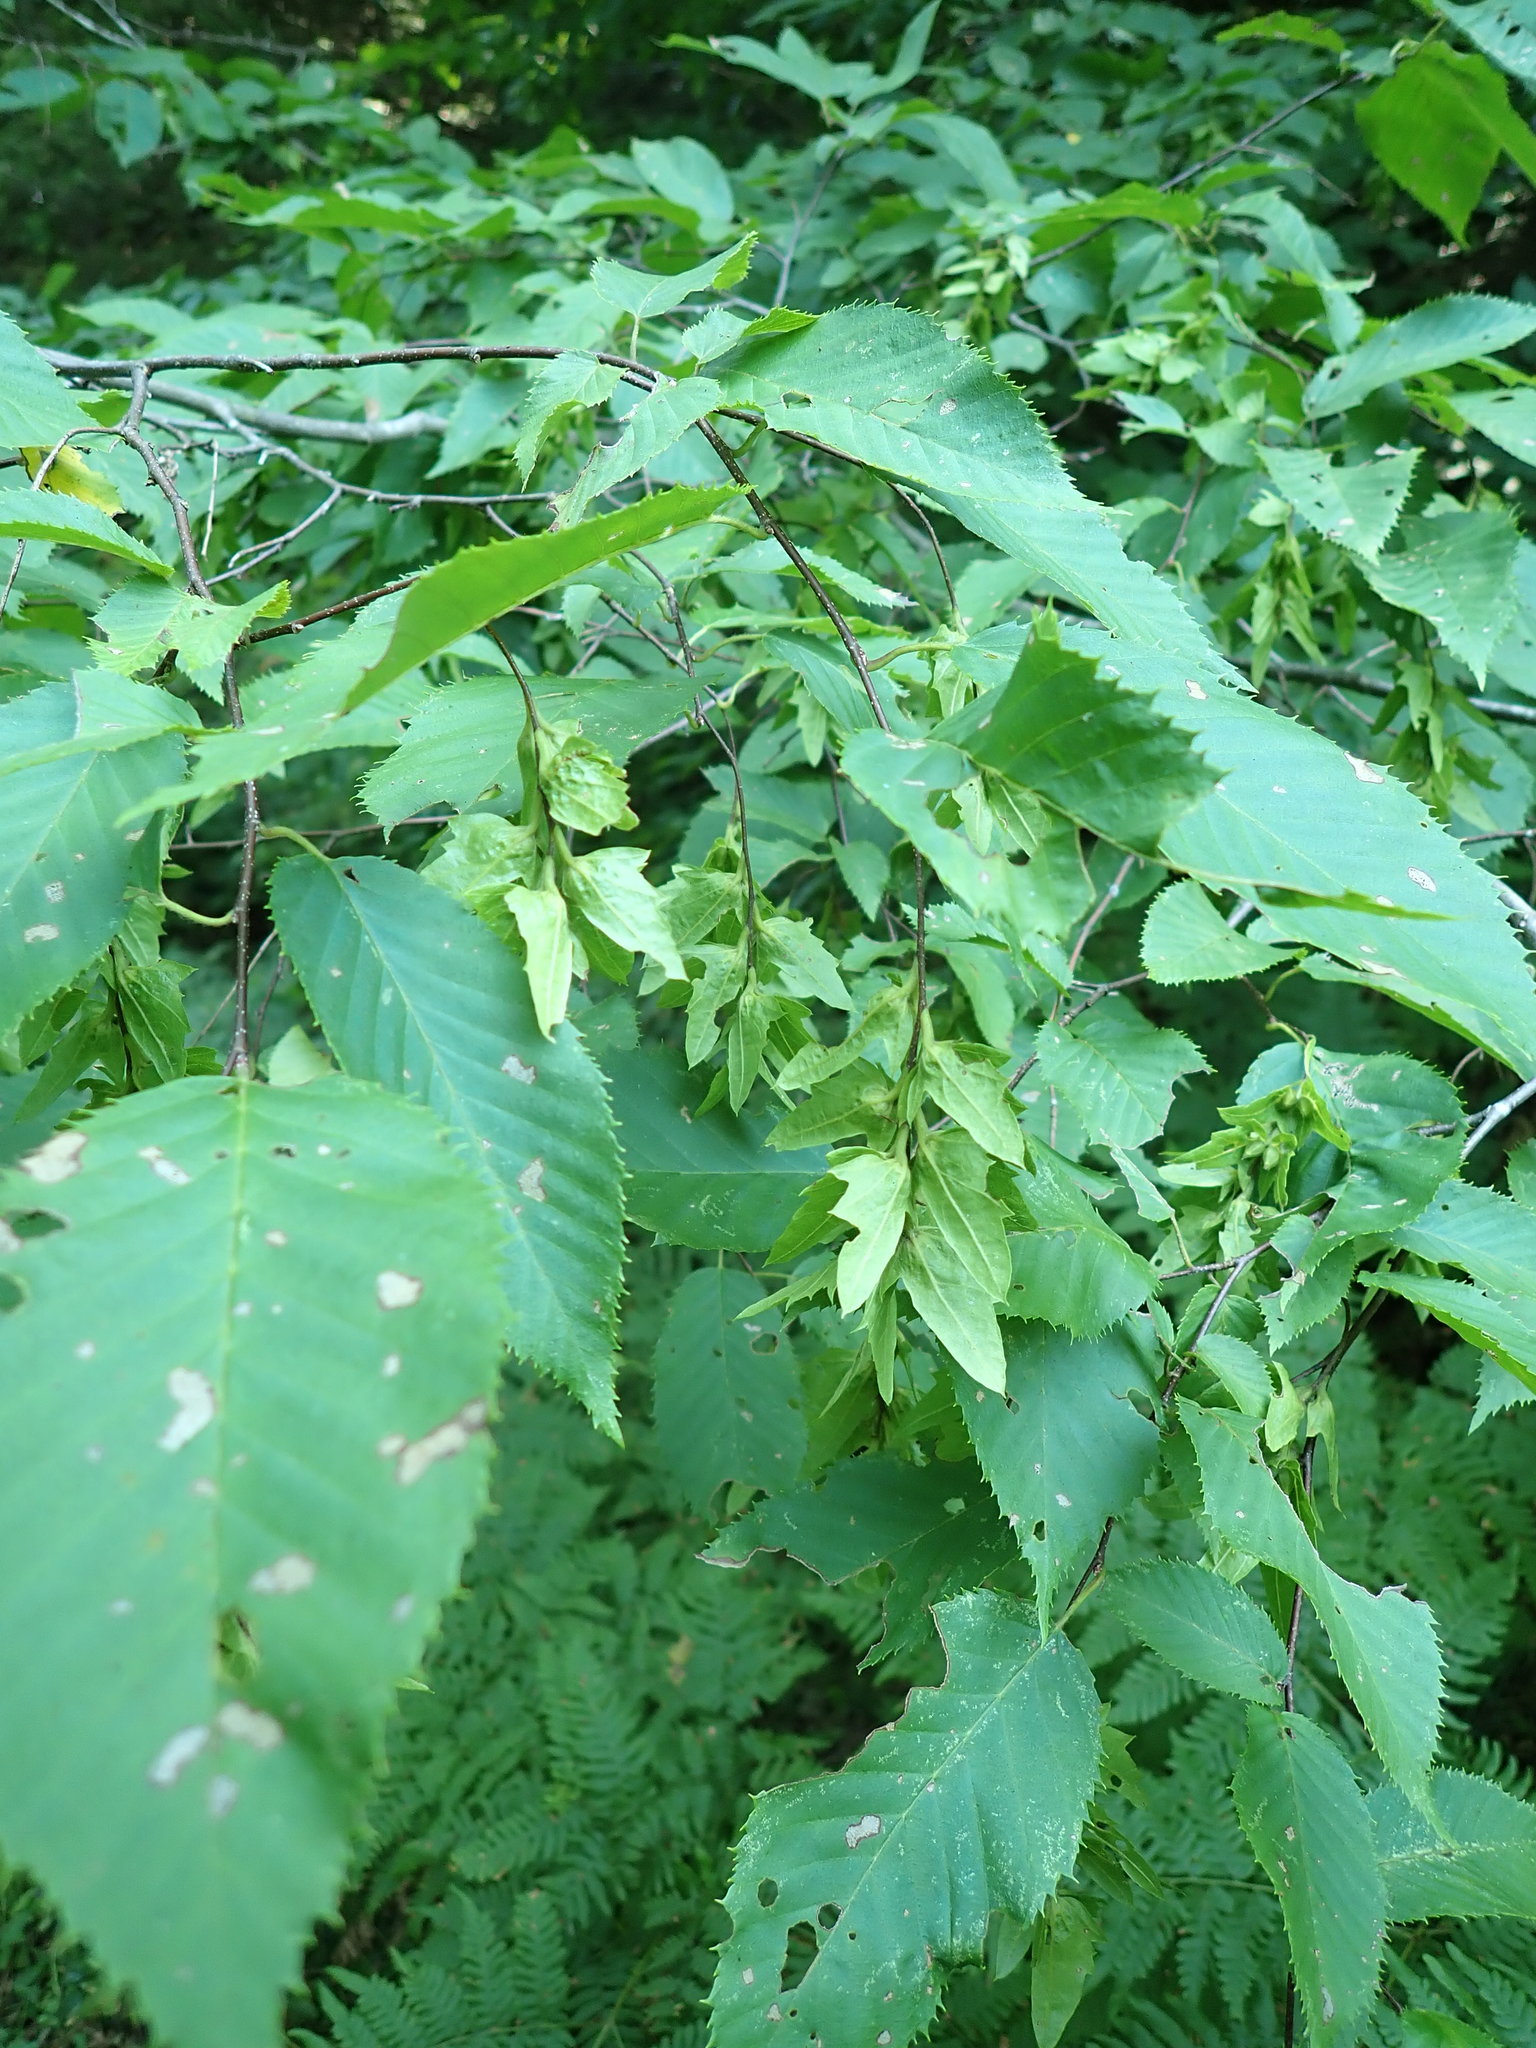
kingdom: Plantae
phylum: Tracheophyta
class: Magnoliopsida
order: Fagales
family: Betulaceae
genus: Carpinus
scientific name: Carpinus caroliniana
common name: American hornbeam
